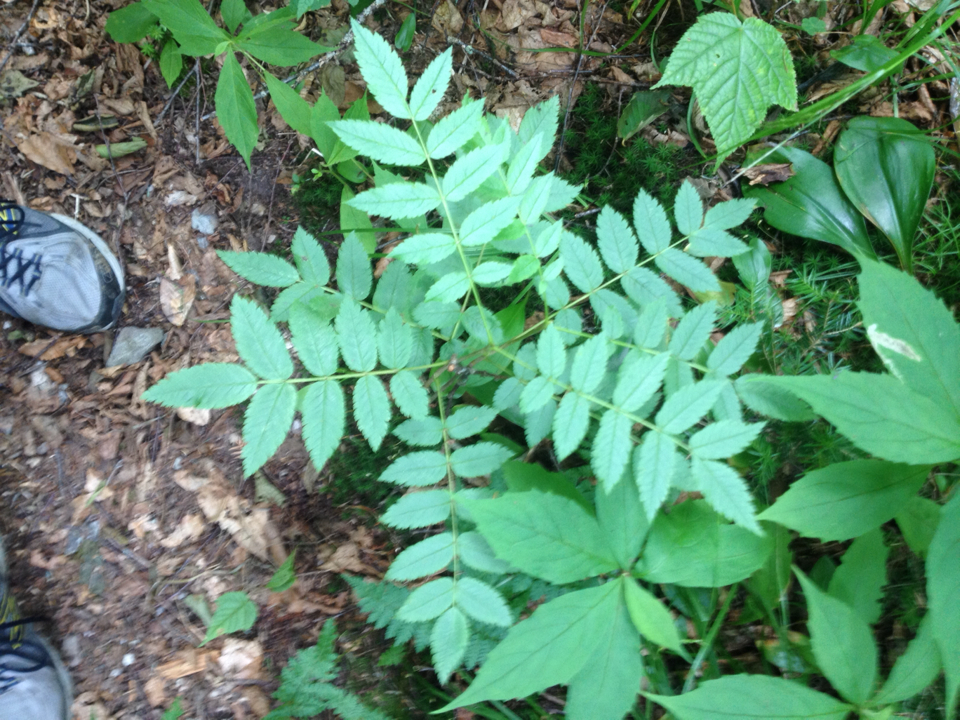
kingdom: Plantae
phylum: Tracheophyta
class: Magnoliopsida
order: Rosales
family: Rosaceae
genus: Sorbus
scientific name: Sorbus americana
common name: American mountain-ash
